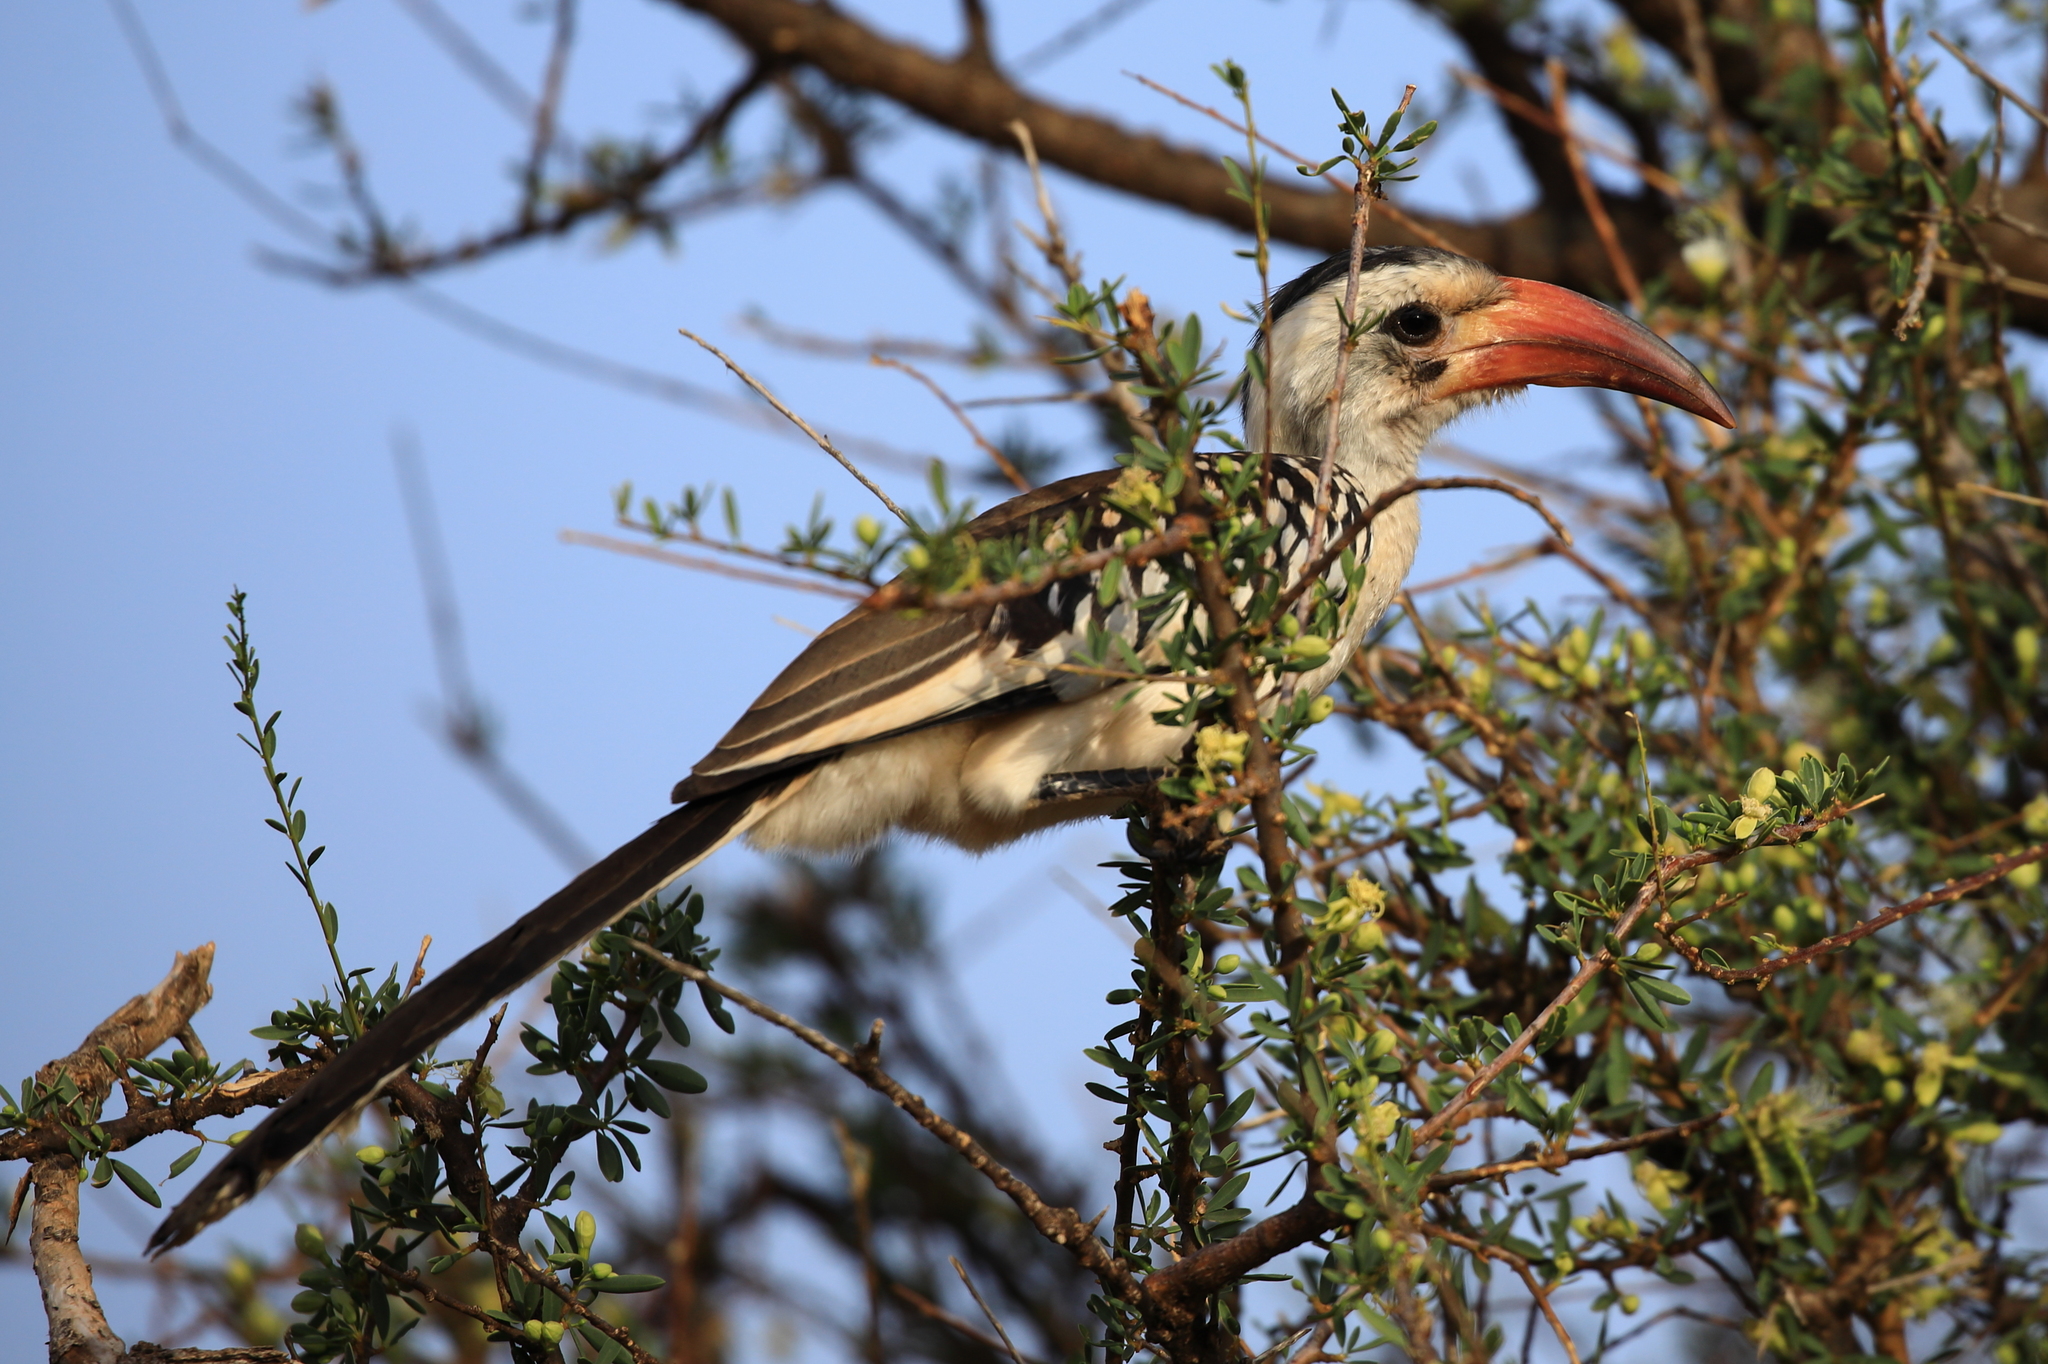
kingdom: Animalia
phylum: Chordata
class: Aves
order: Bucerotiformes
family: Bucerotidae
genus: Tockus
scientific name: Tockus erythrorhynchus
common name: Northern red-billed hornbill
